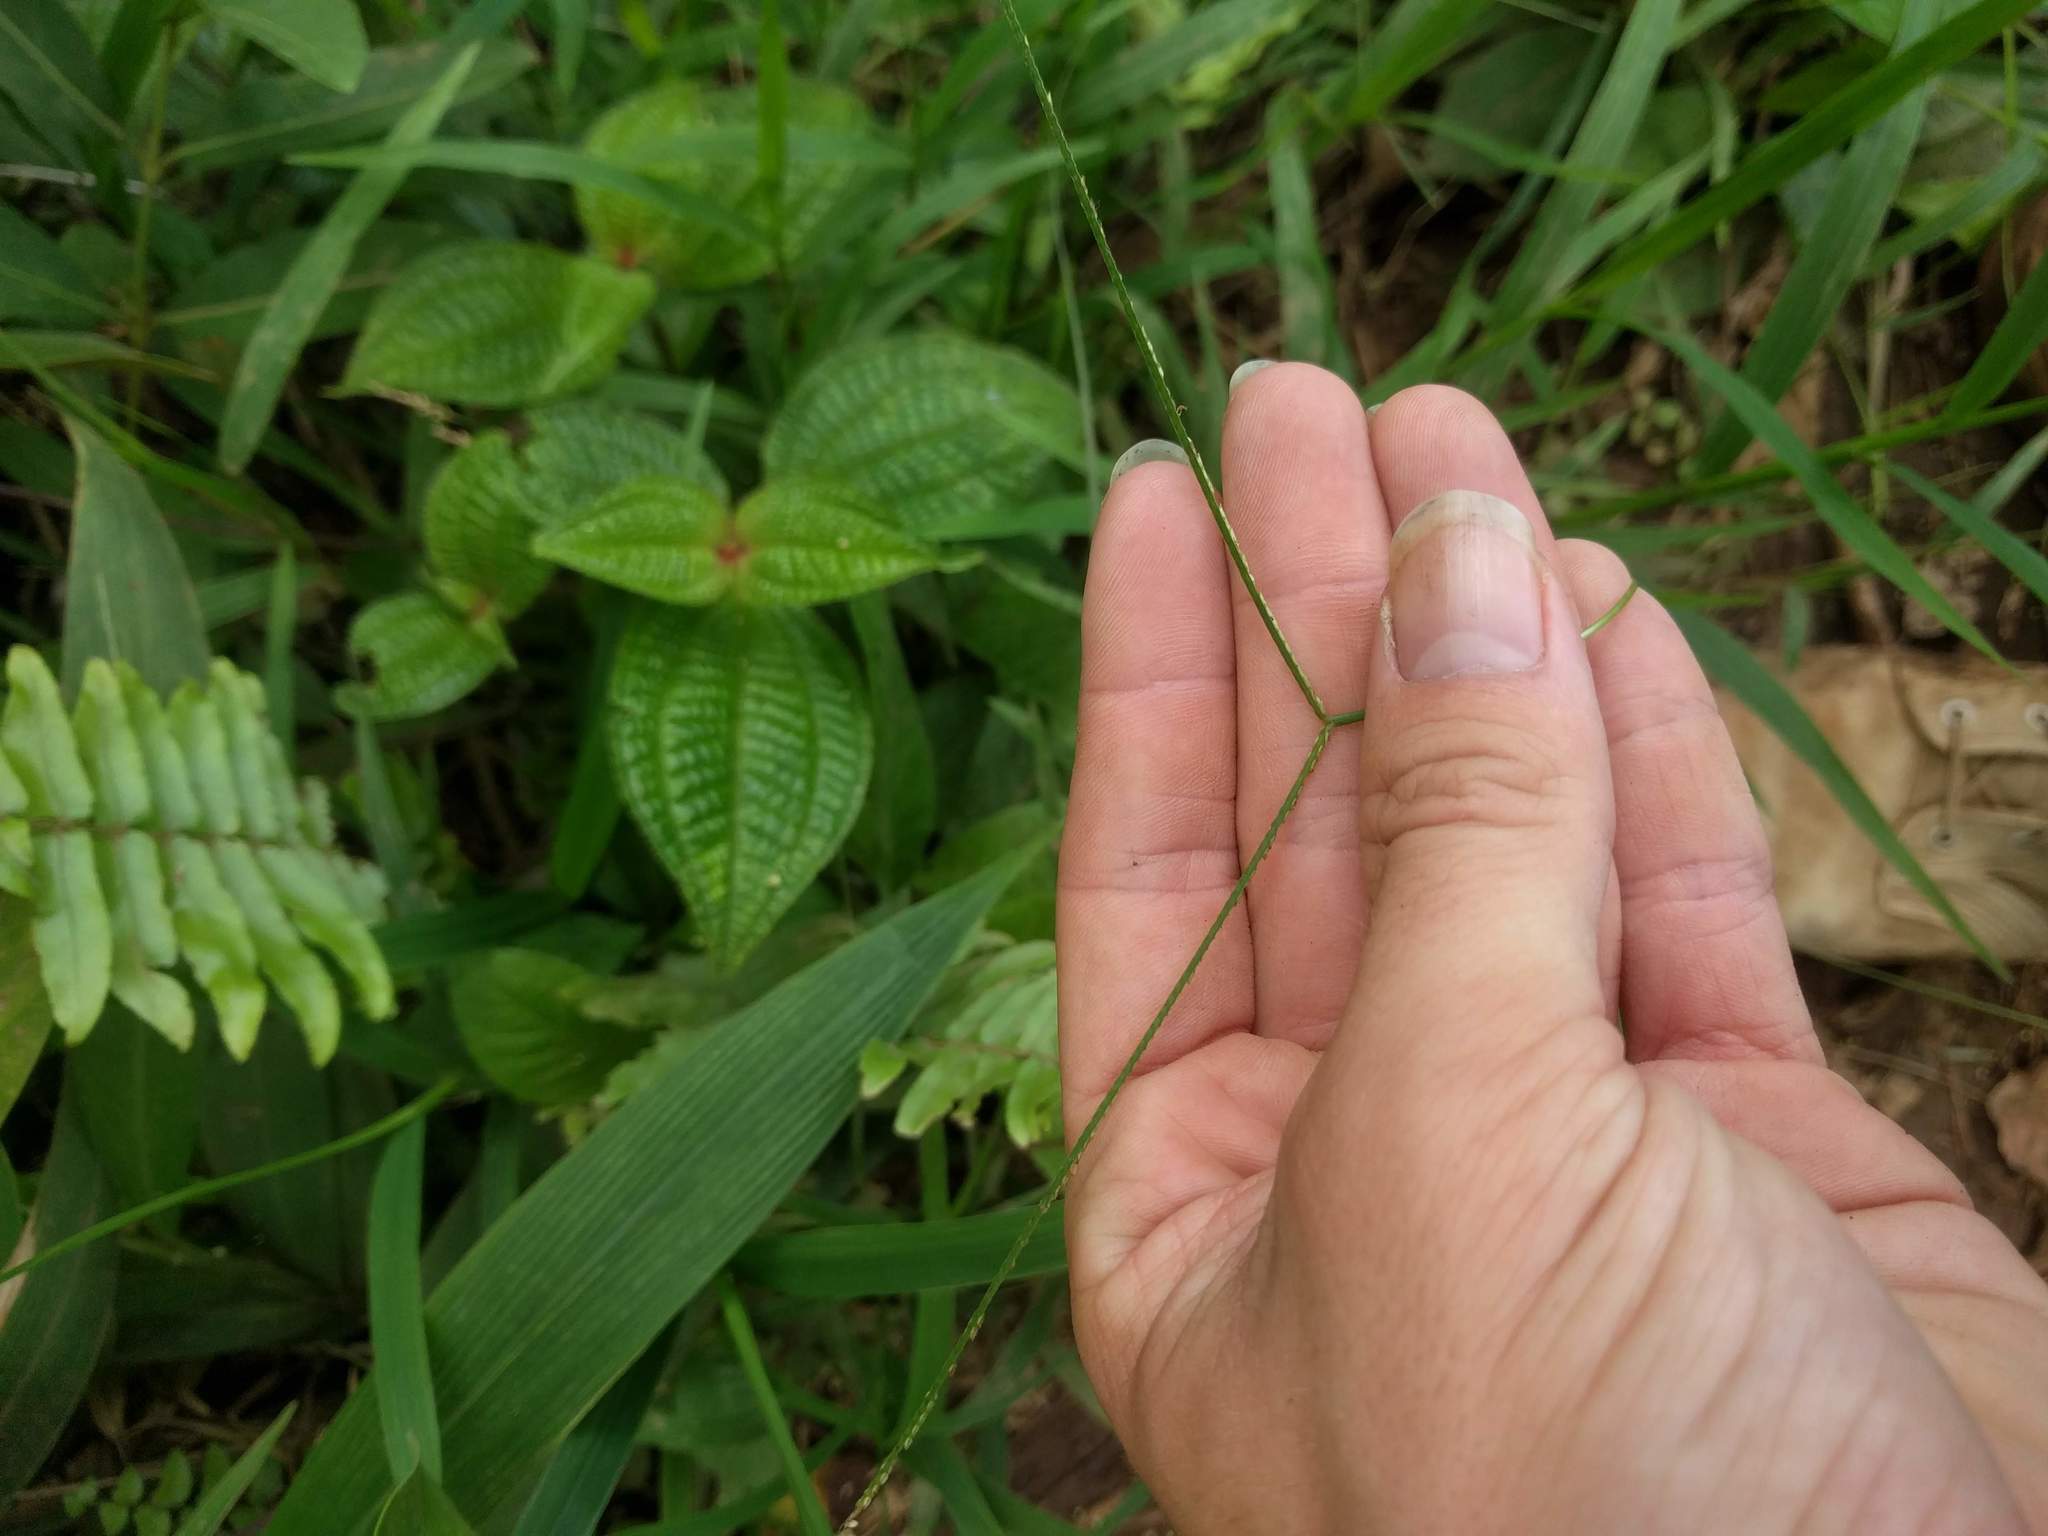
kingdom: Plantae
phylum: Tracheophyta
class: Liliopsida
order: Poales
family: Poaceae
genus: Paspalum
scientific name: Paspalum conjugatum
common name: Hilograss
